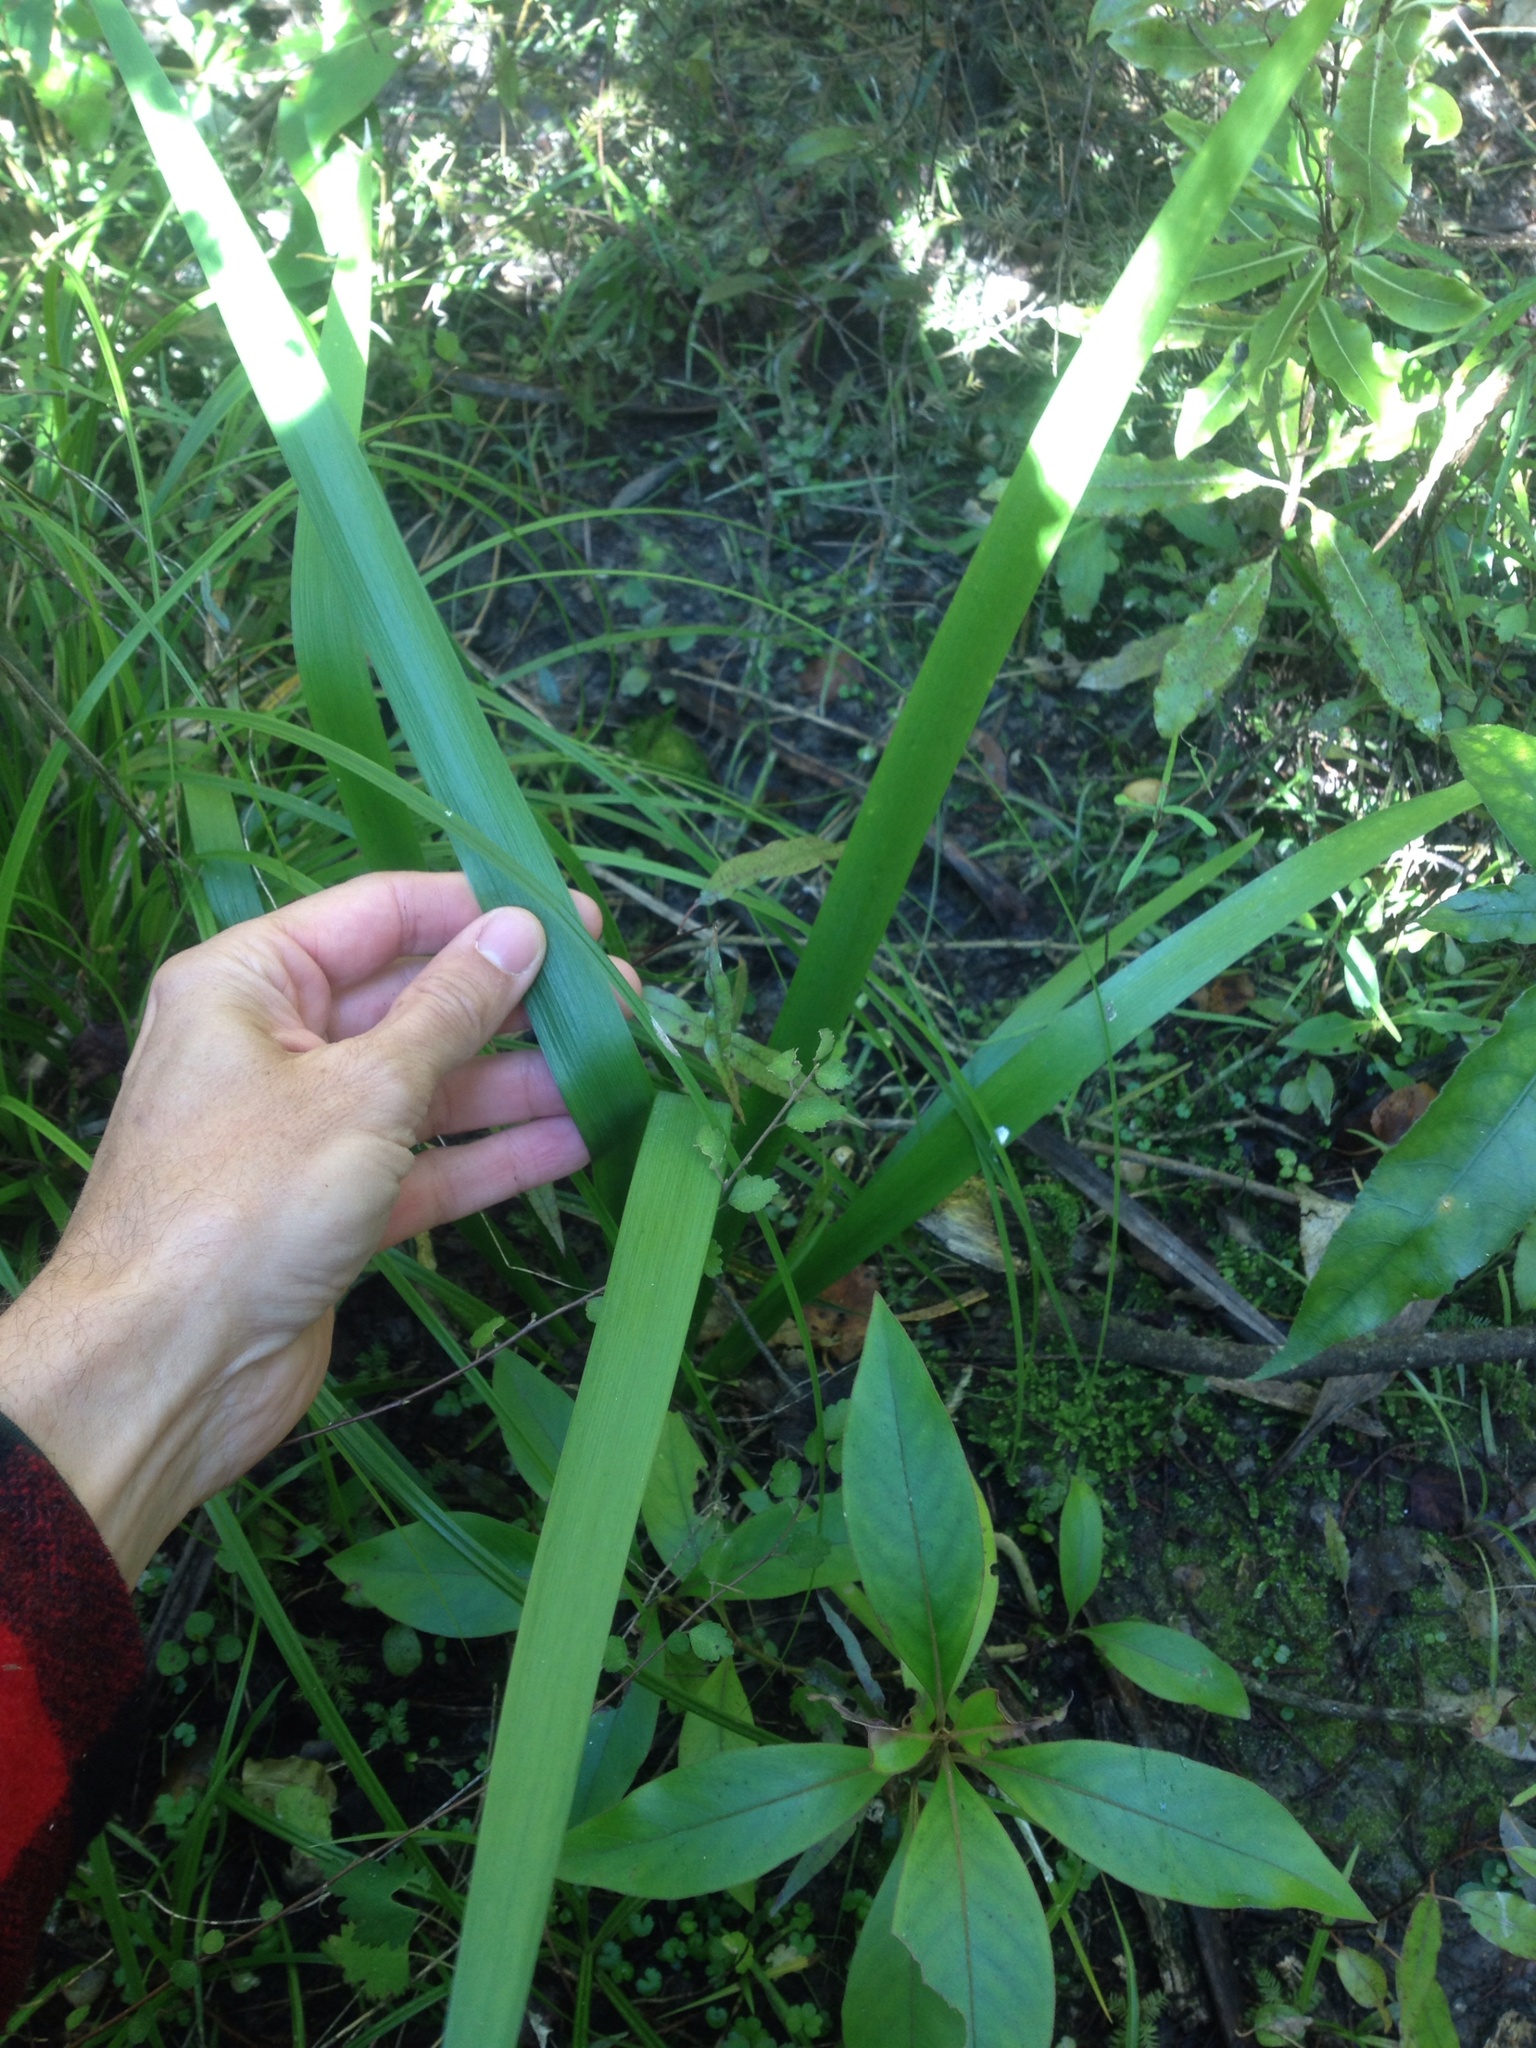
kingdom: Plantae
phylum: Tracheophyta
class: Liliopsida
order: Asparagales
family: Iridaceae
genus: Iris
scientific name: Iris foetidissima
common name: Stinking iris
